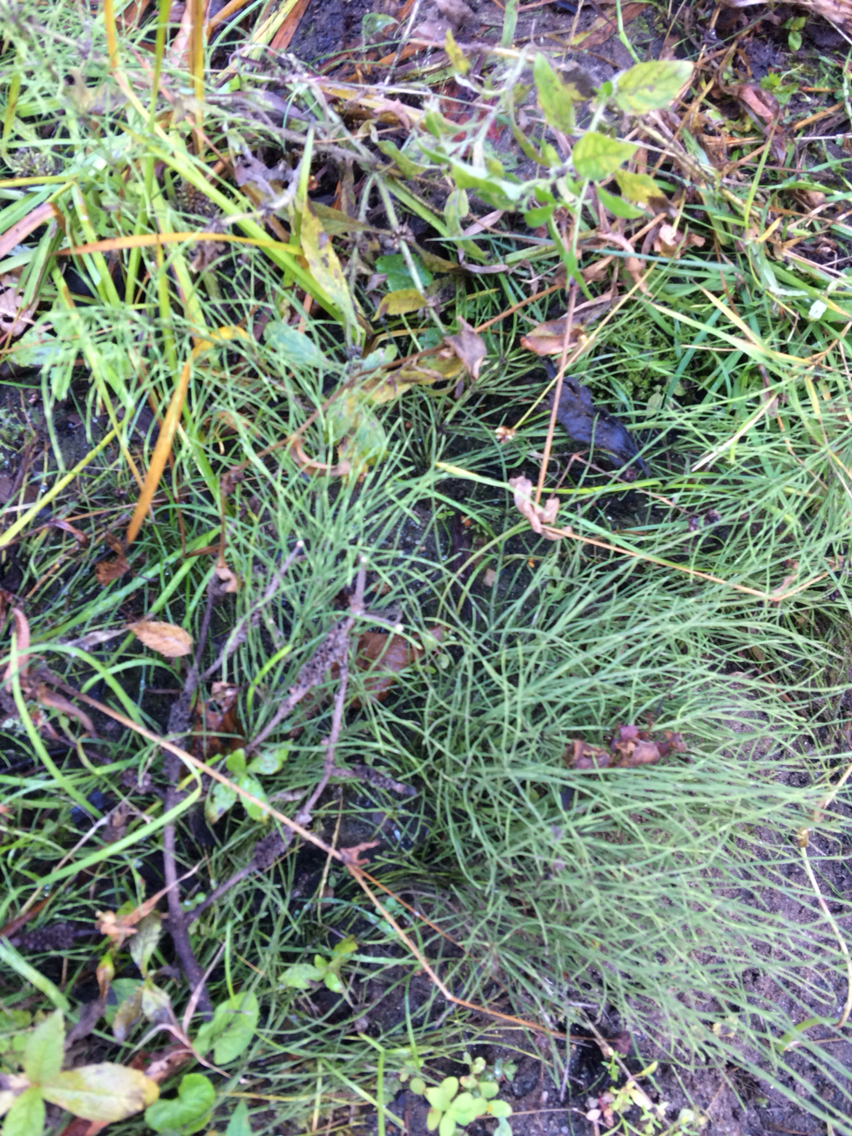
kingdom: Plantae
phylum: Tracheophyta
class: Polypodiopsida
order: Equisetales
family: Equisetaceae
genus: Equisetum
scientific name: Equisetum arvense
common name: Field horsetail
